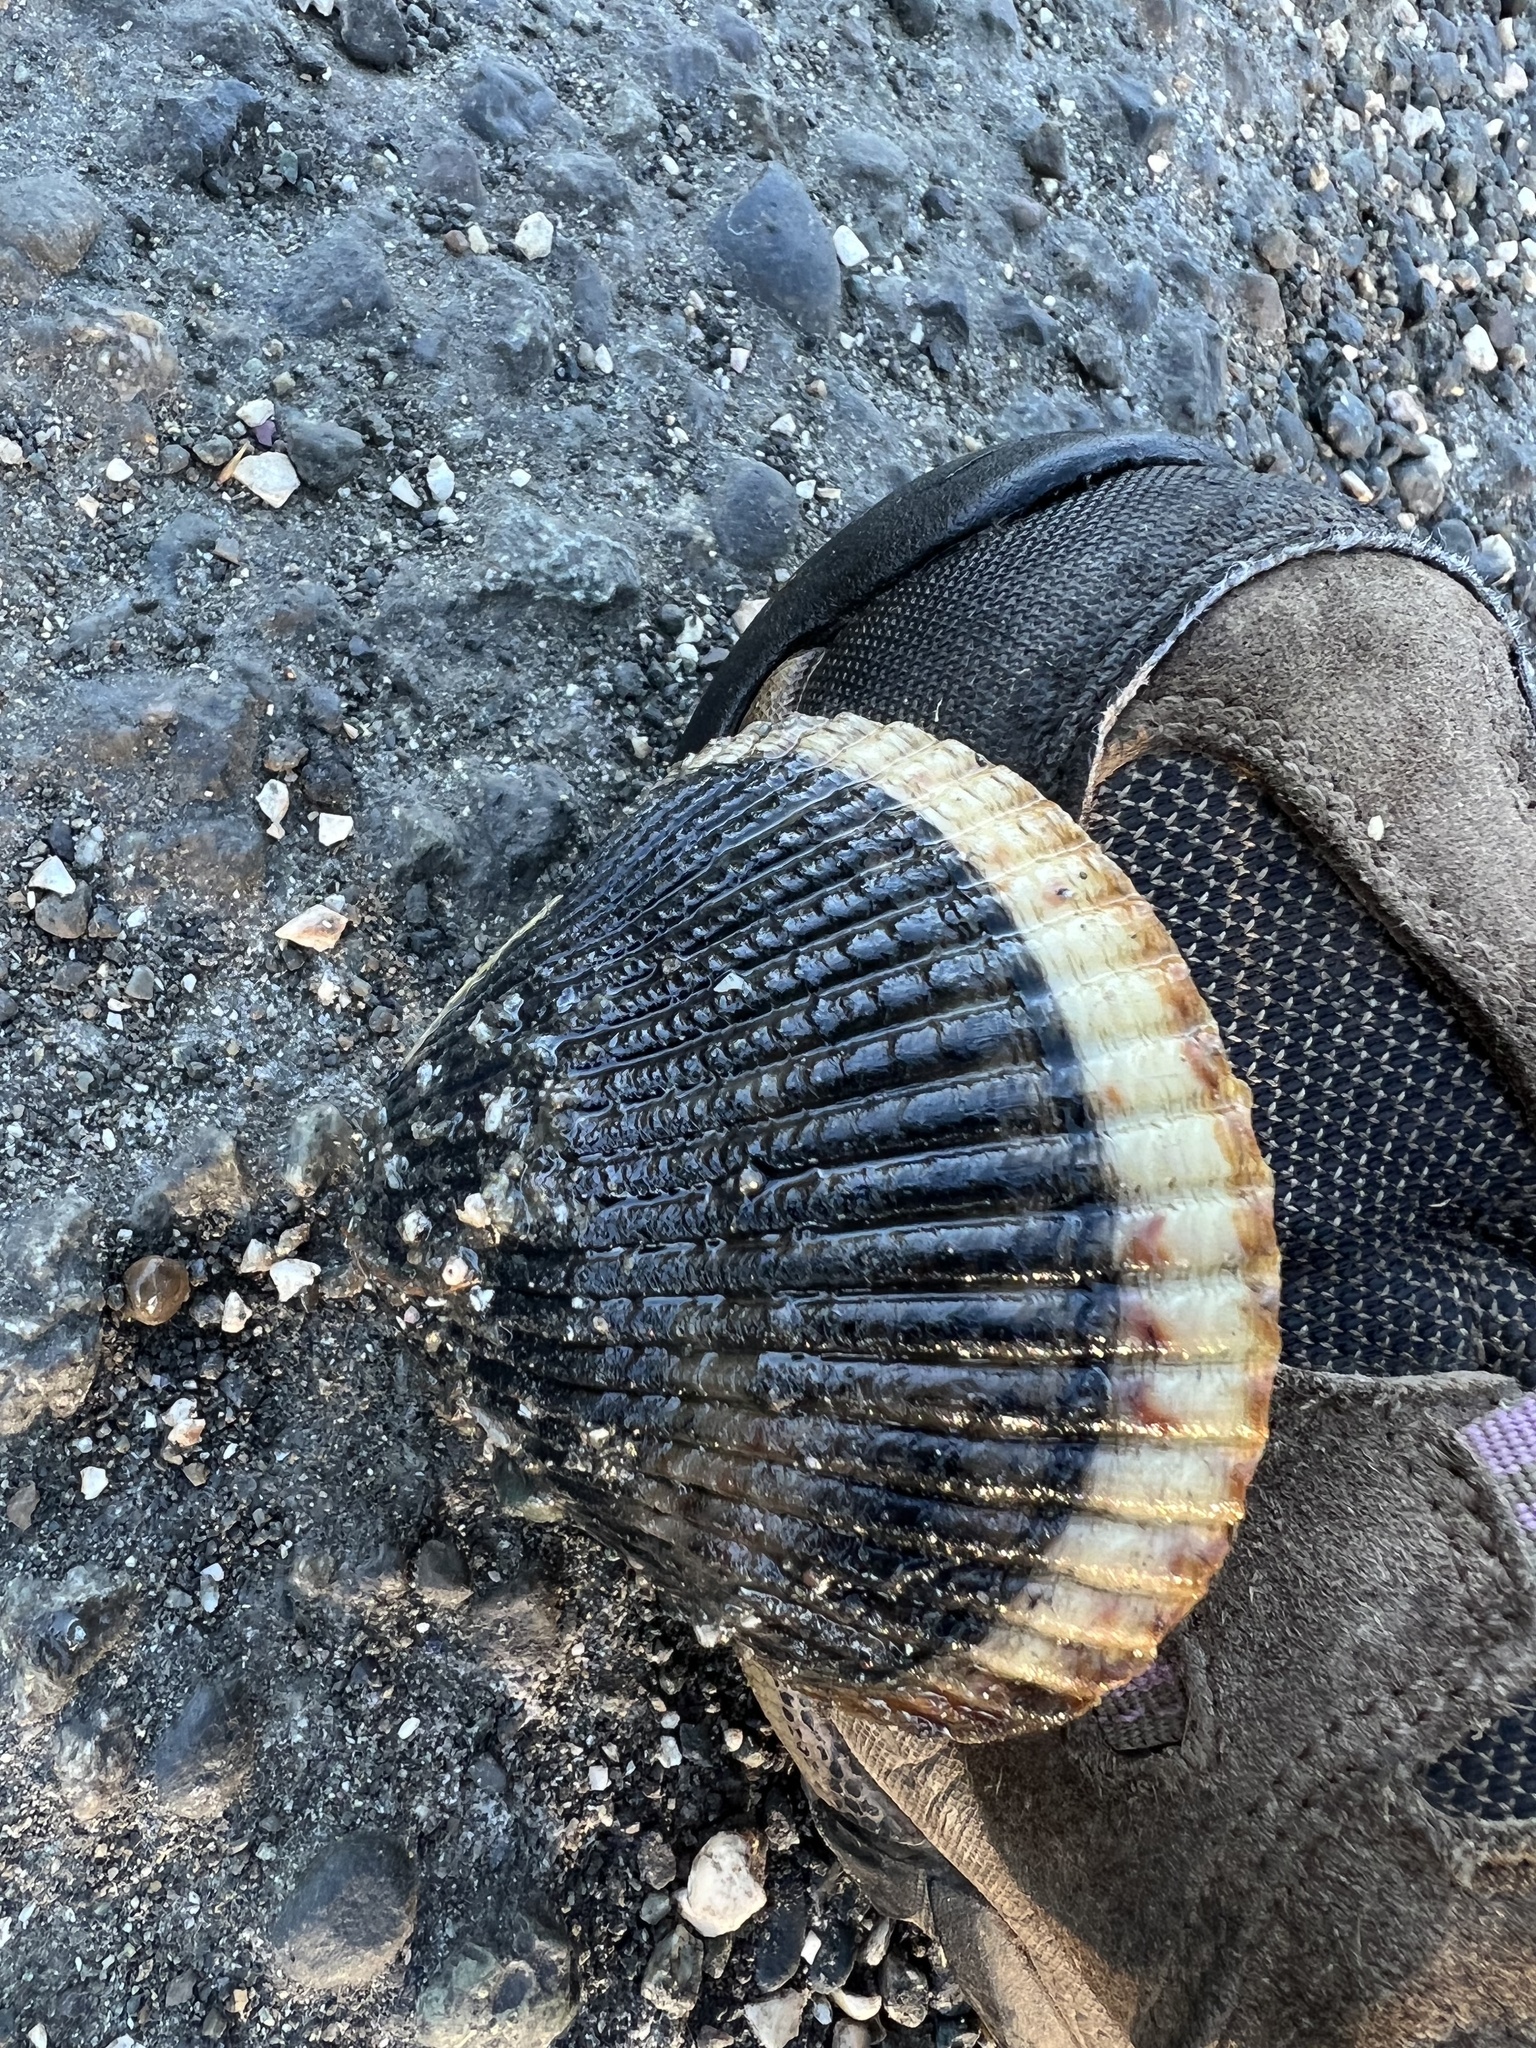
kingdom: Animalia
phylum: Mollusca
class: Bivalvia
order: Cardiida
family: Cardiidae
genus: Clinocardium
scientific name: Clinocardium nuttallii
